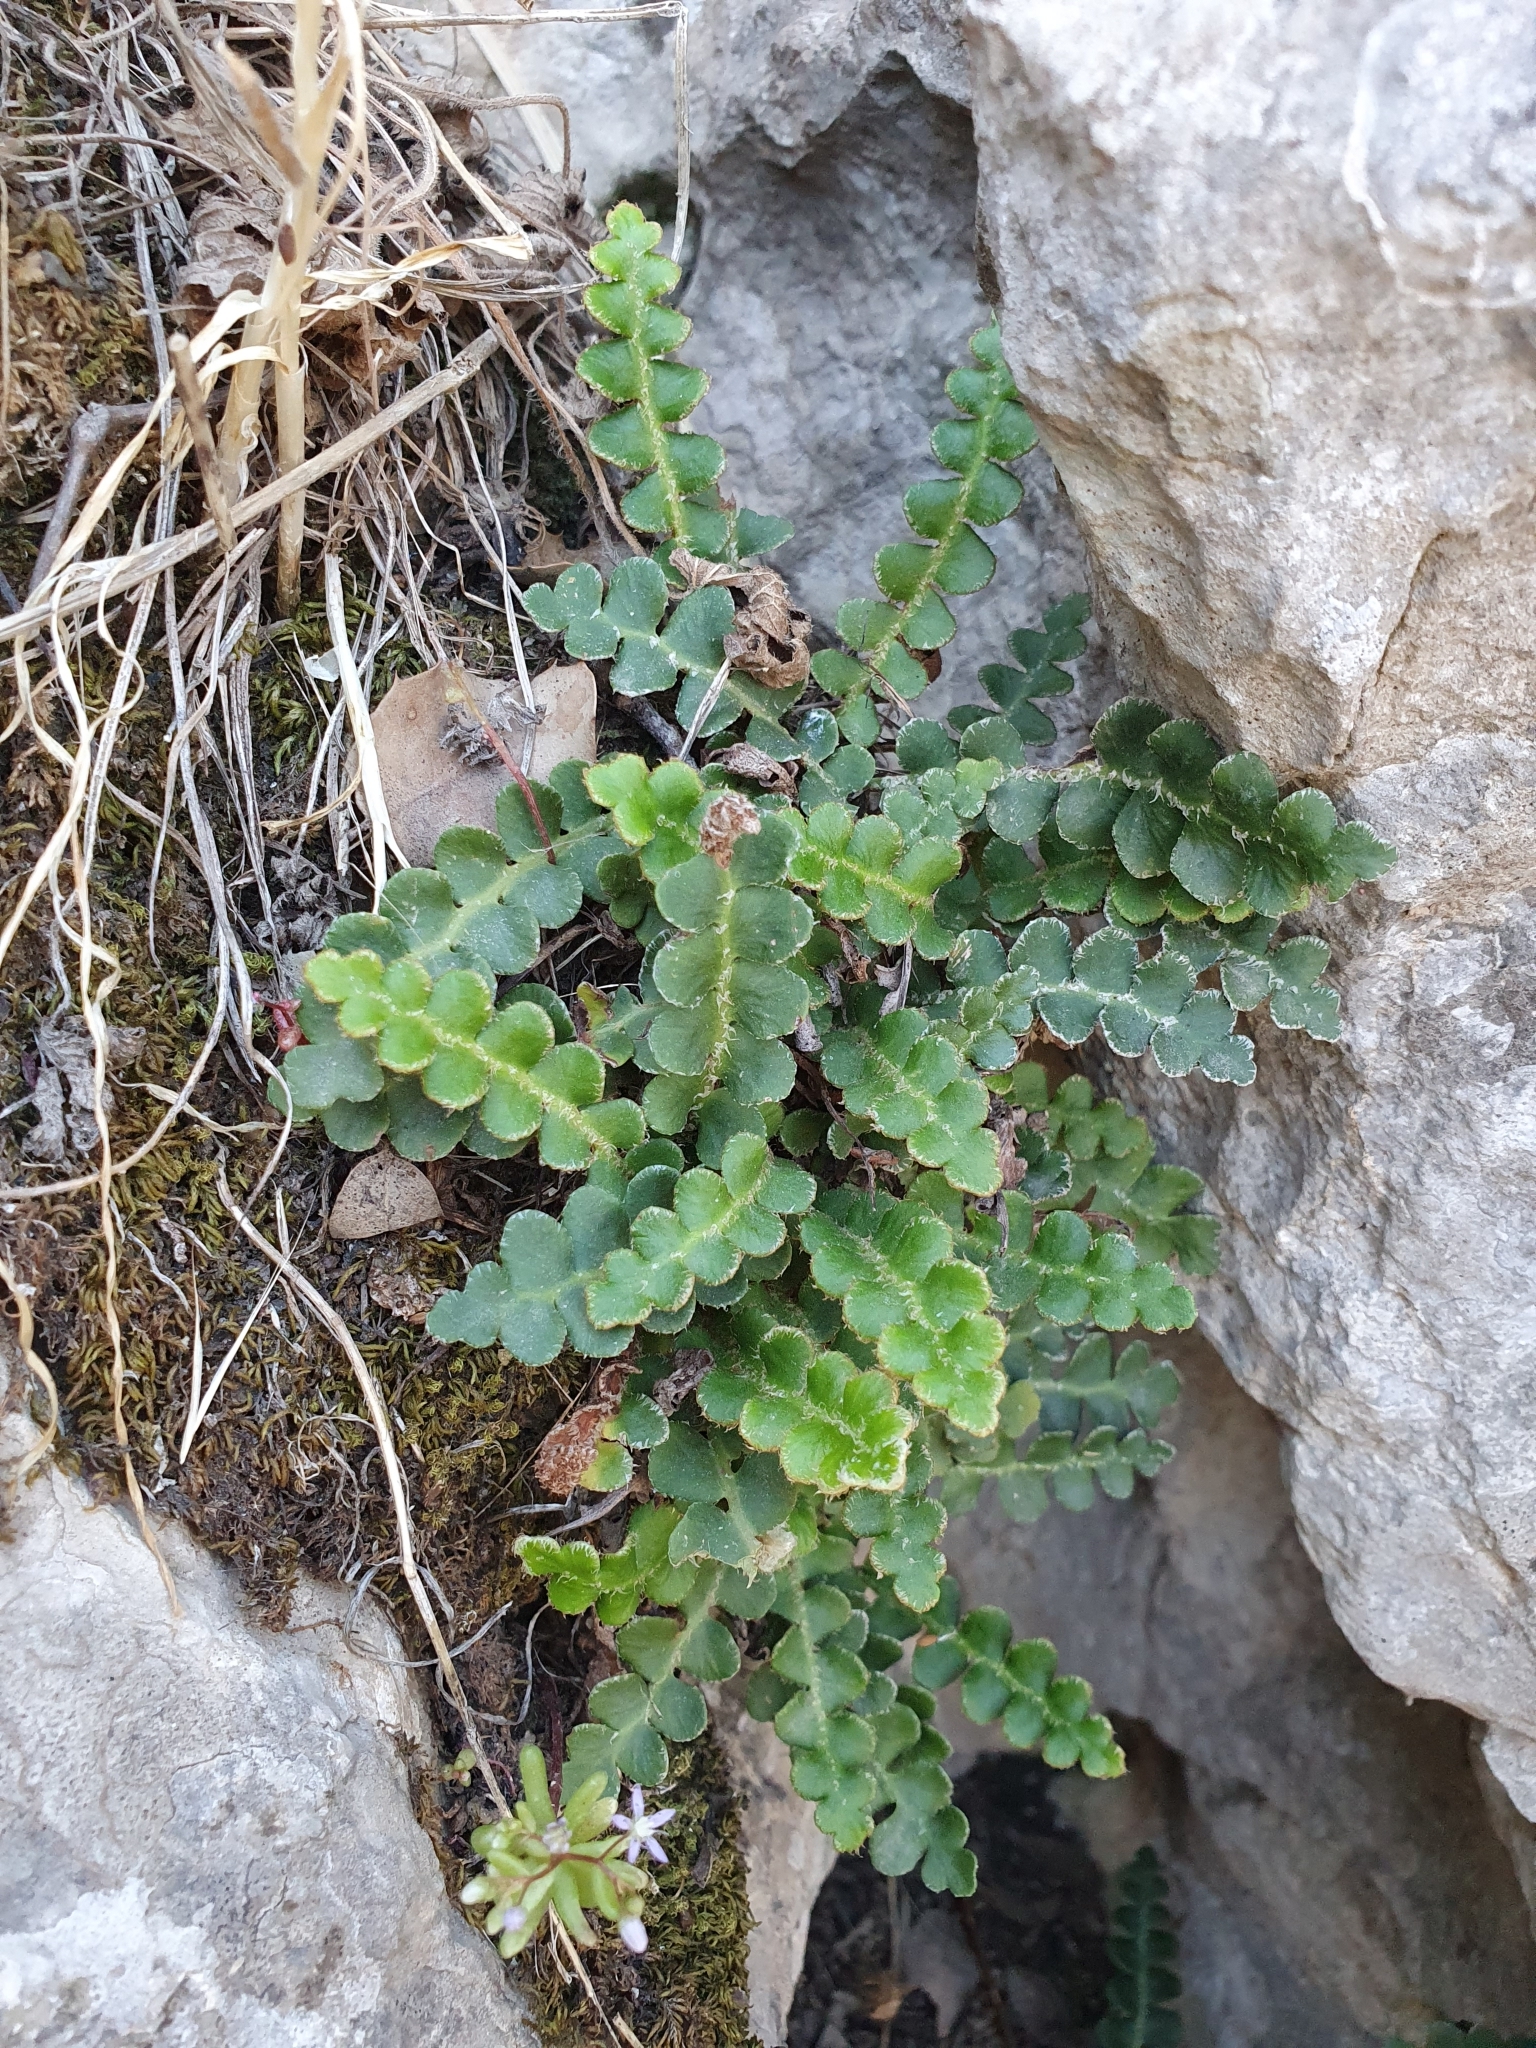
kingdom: Plantae
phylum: Tracheophyta
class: Polypodiopsida
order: Polypodiales
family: Aspleniaceae
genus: Asplenium
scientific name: Asplenium ceterach
